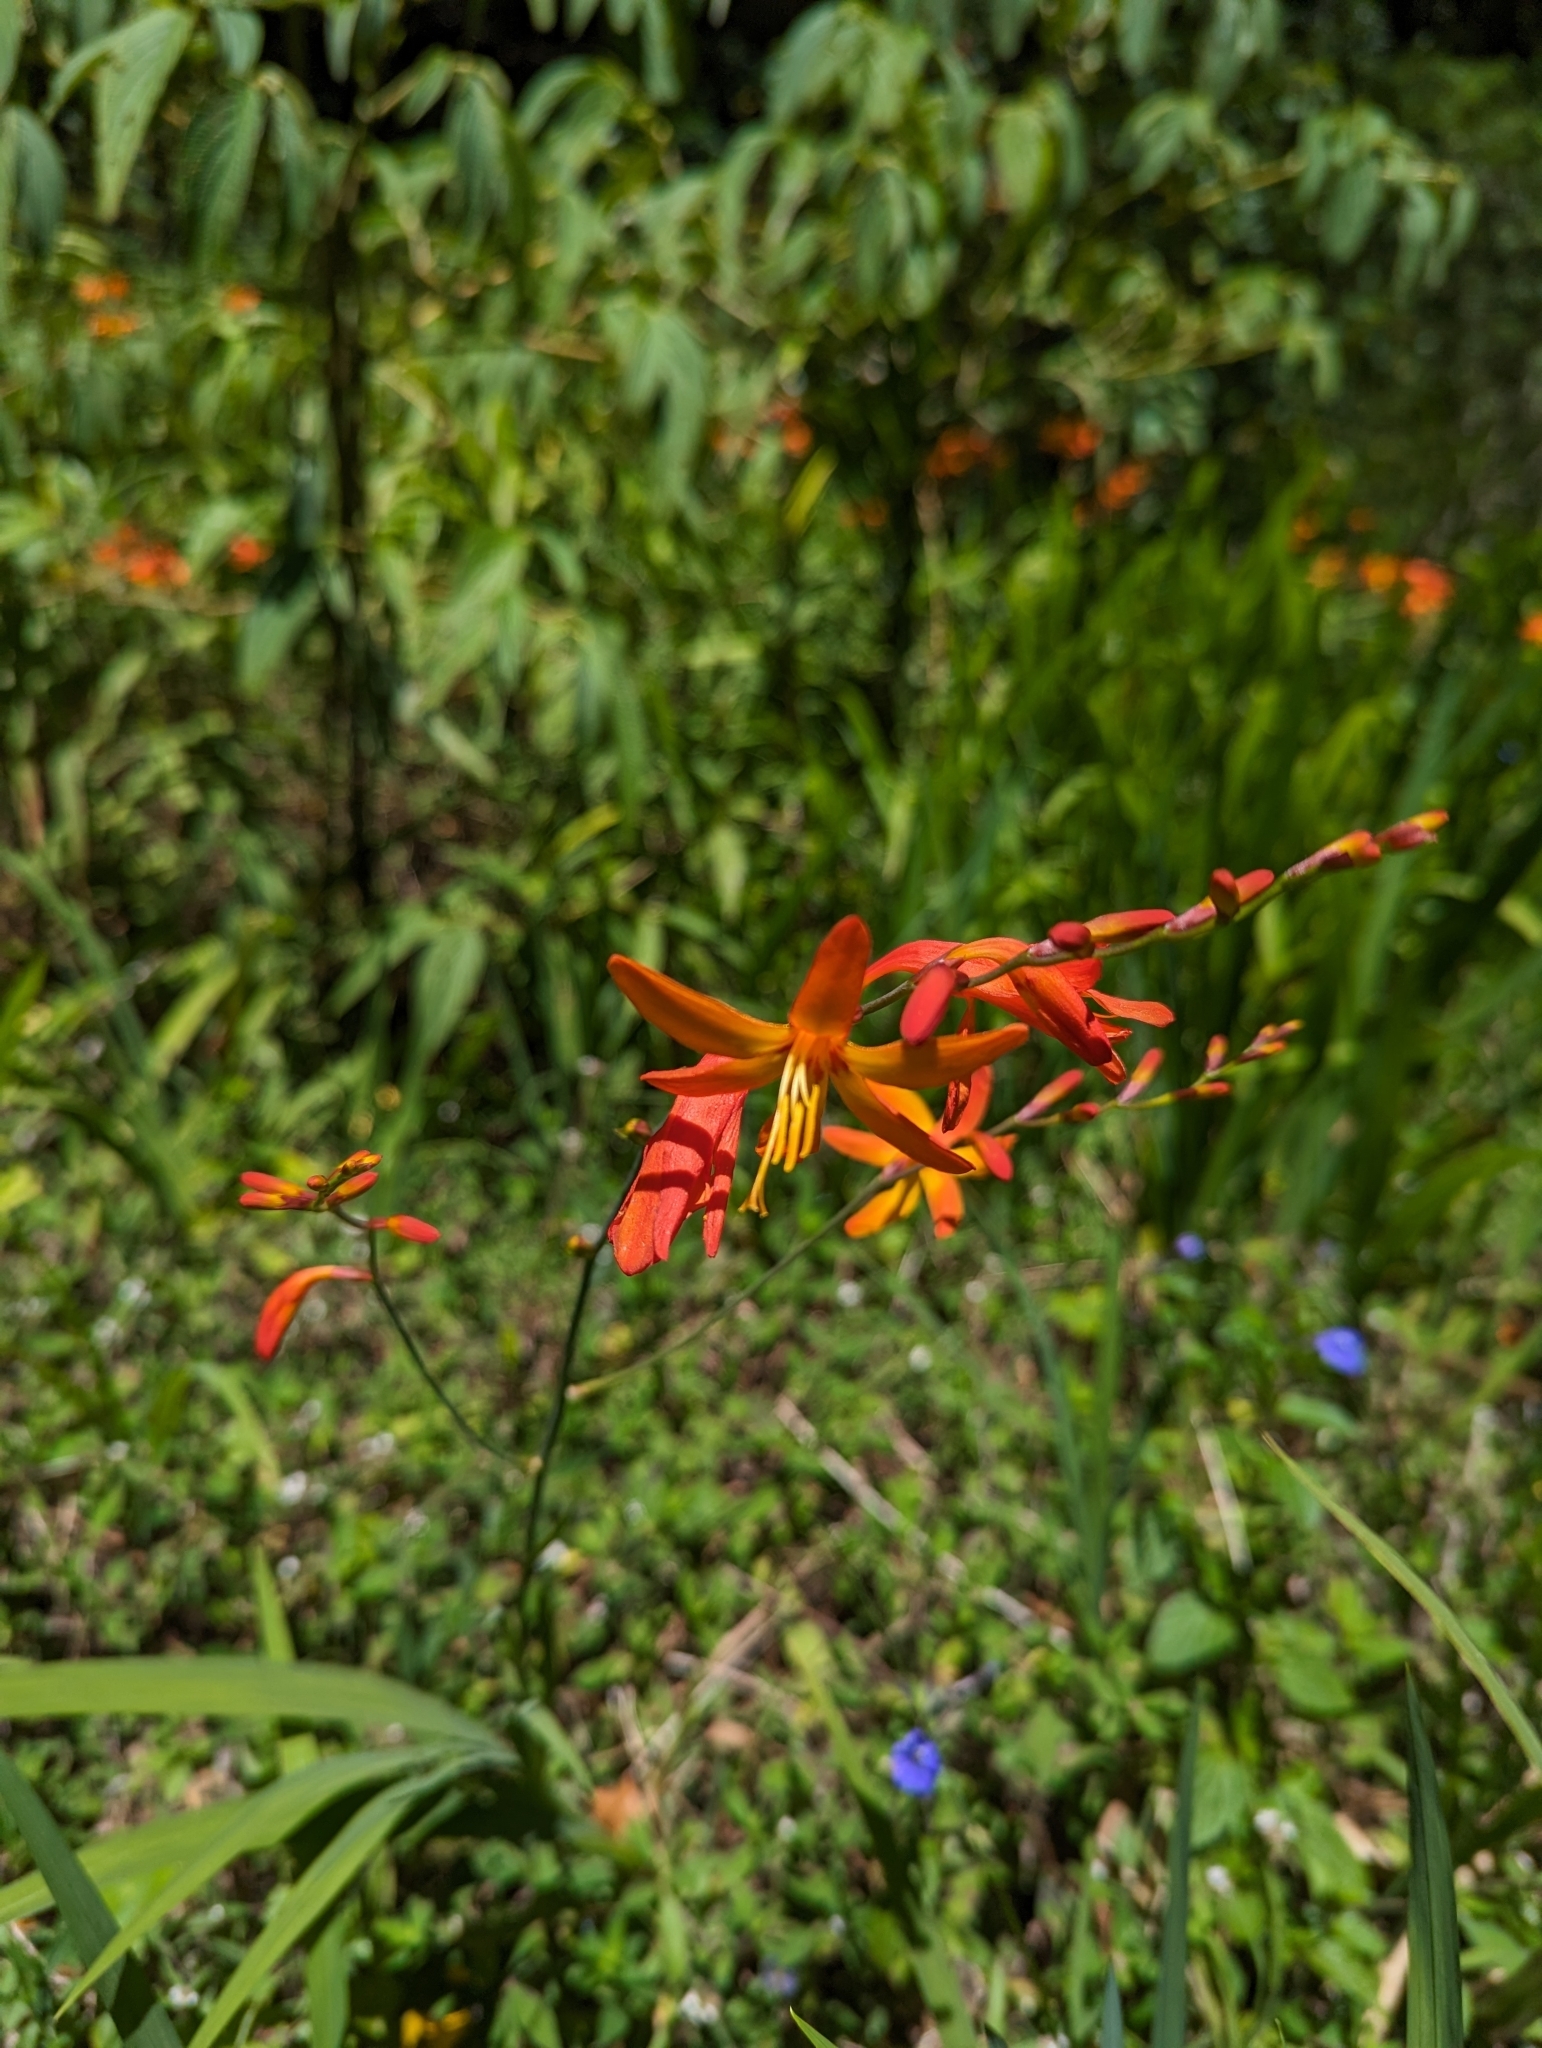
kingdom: Plantae
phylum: Tracheophyta
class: Liliopsida
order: Asparagales
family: Iridaceae
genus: Crocosmia
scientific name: Crocosmia crocosmiiflora
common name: Montbretia
